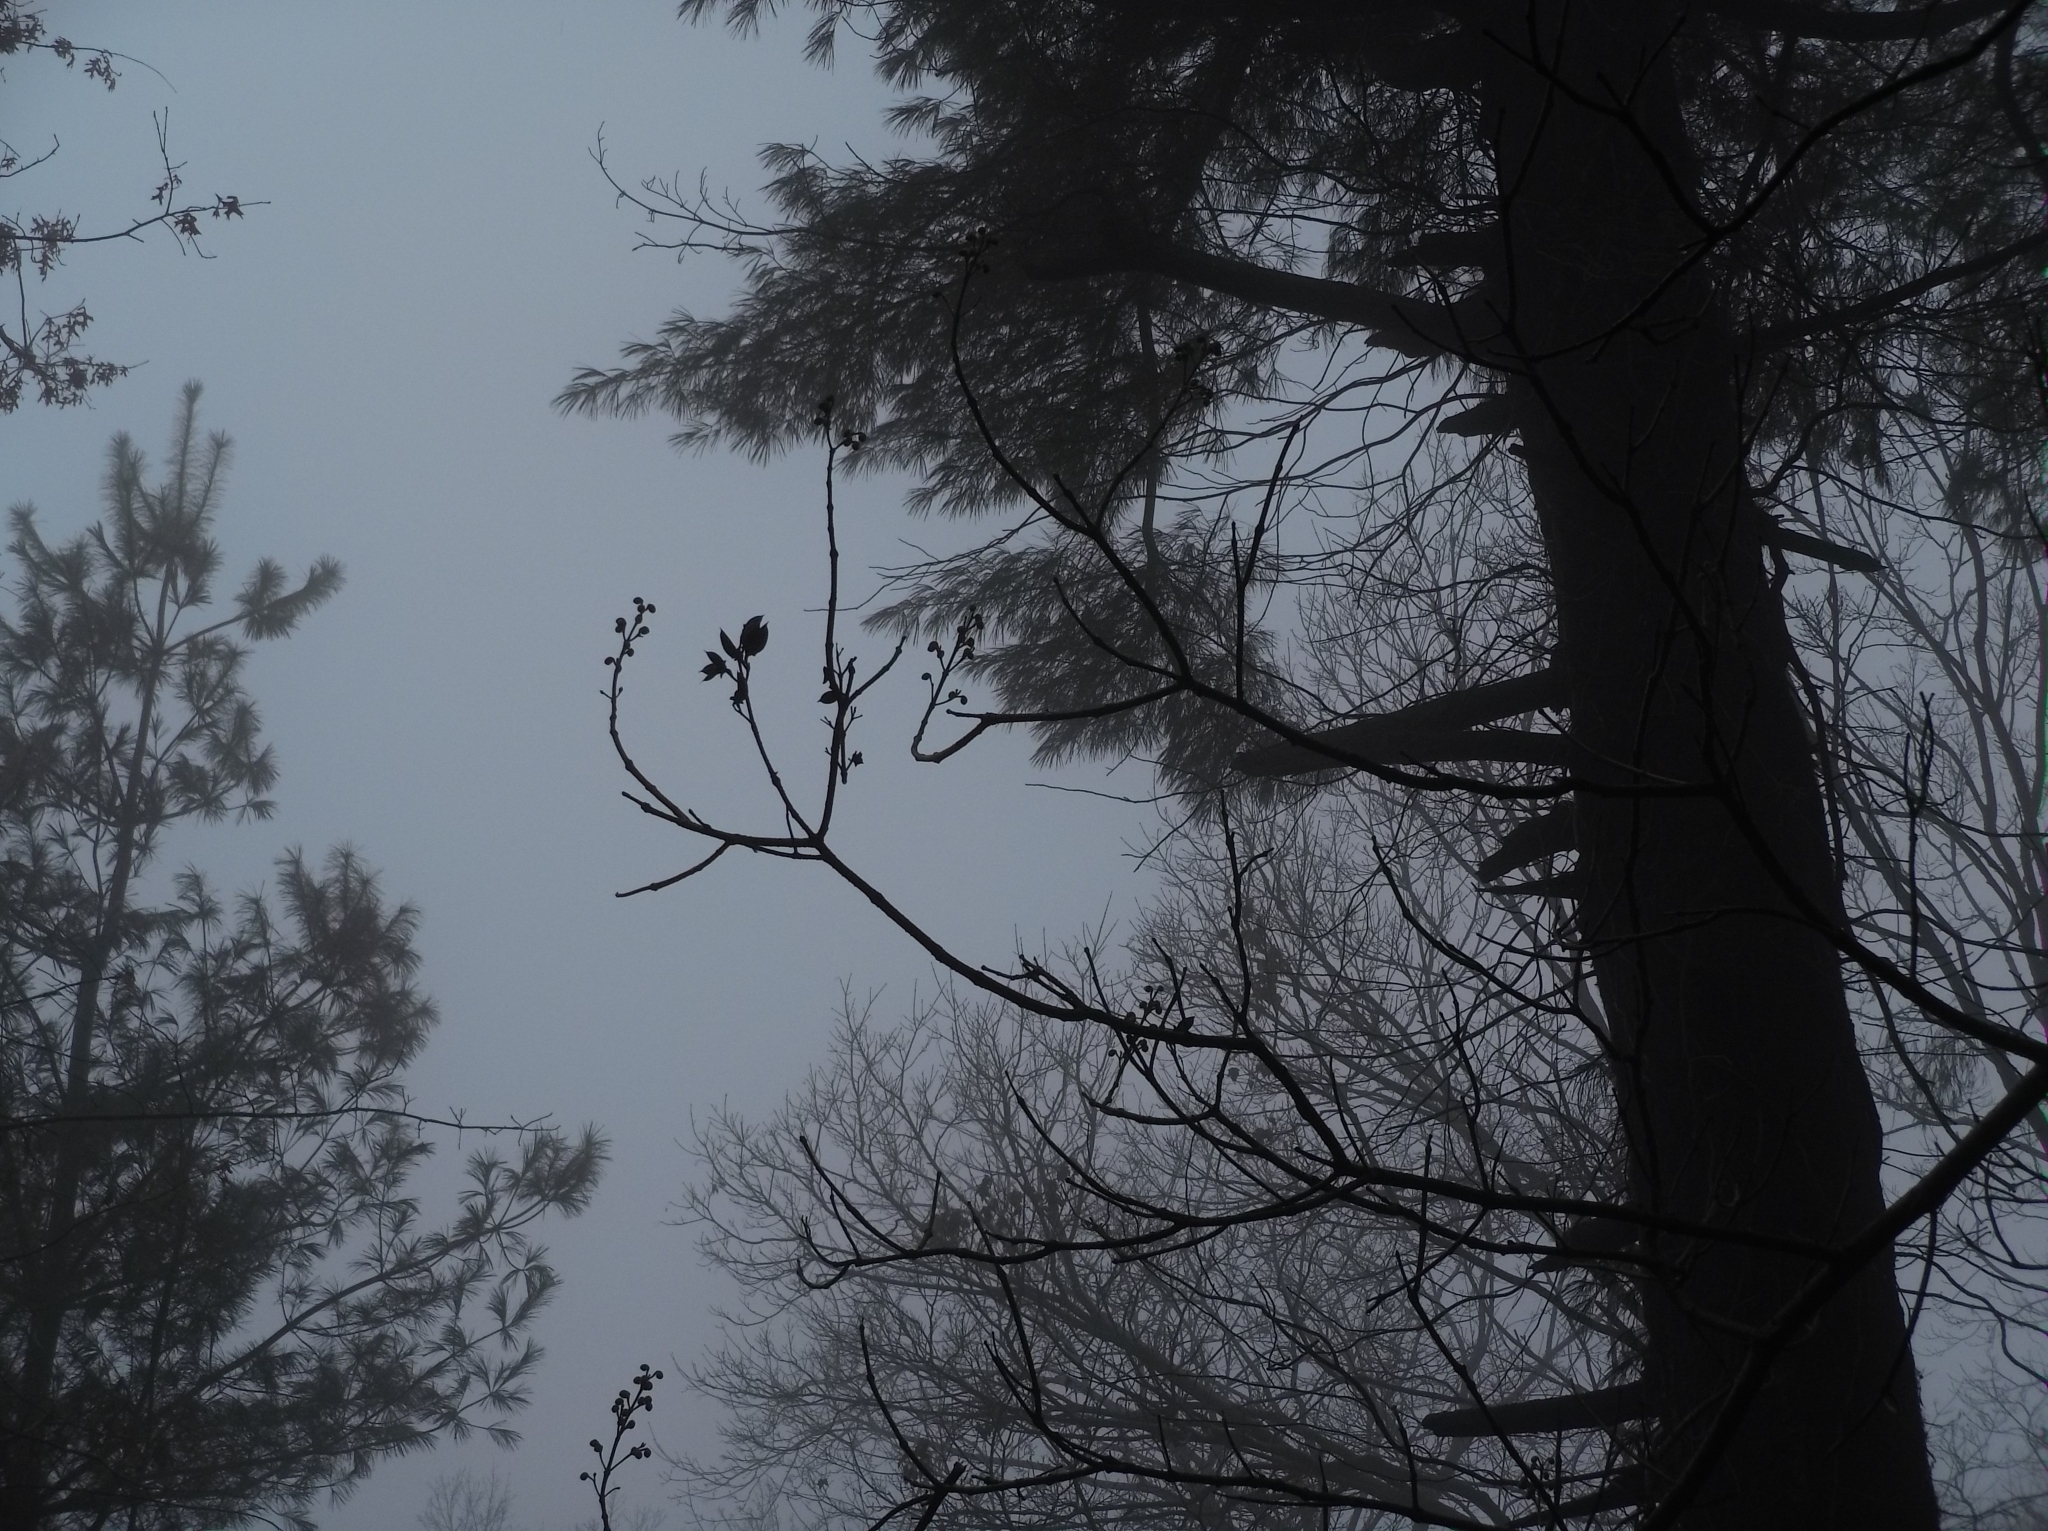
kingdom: Plantae
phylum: Tracheophyta
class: Magnoliopsida
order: Lamiales
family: Paulowniaceae
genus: Paulownia
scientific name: Paulownia tomentosa
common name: Foxglove-tree
